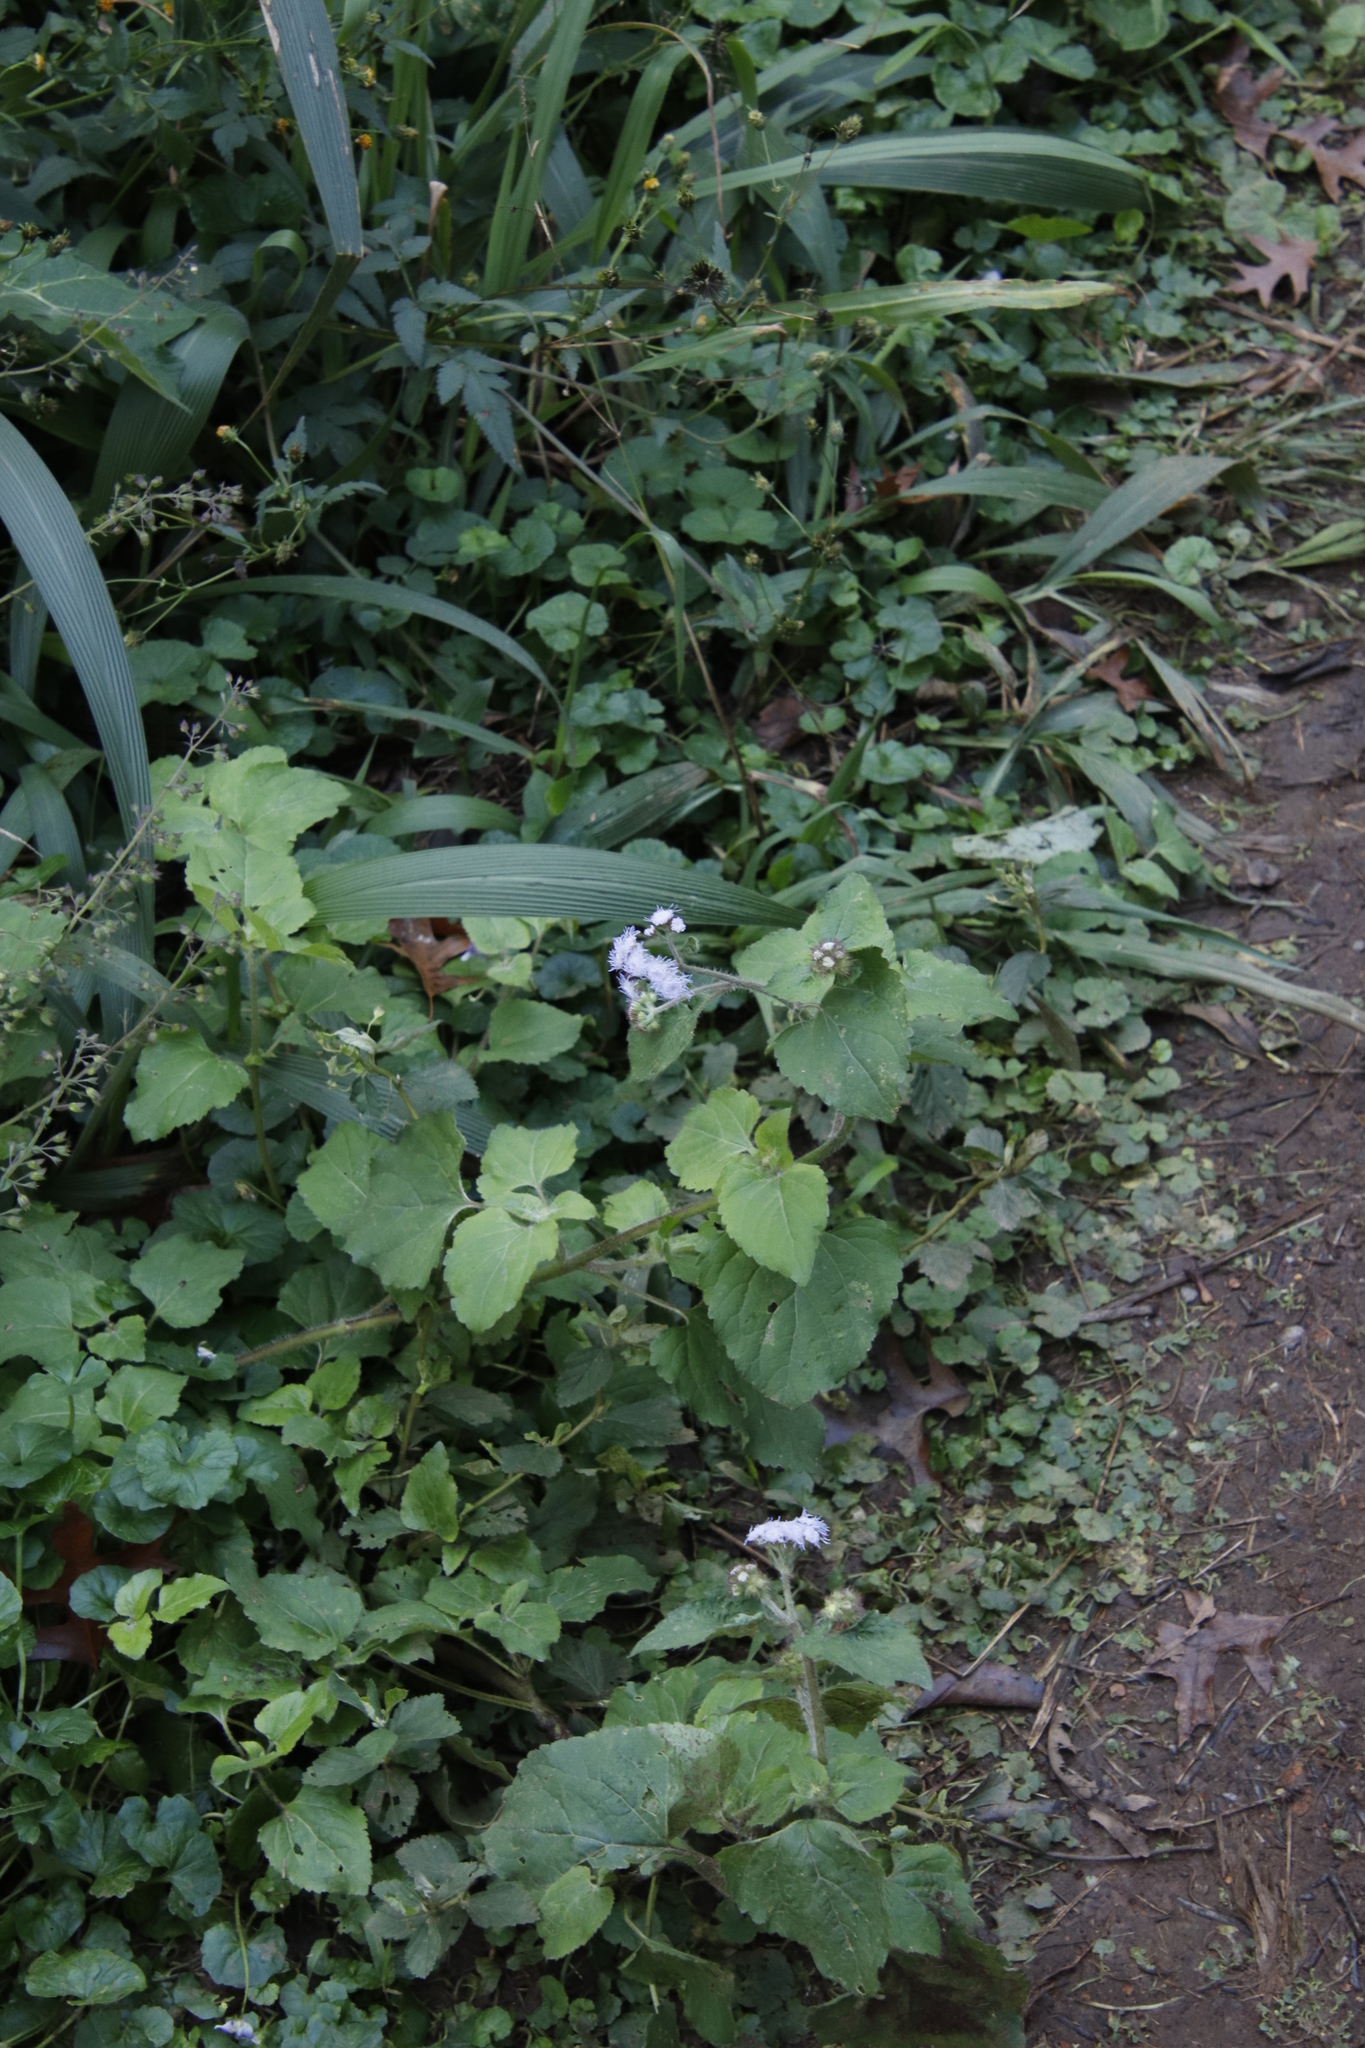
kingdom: Plantae
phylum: Tracheophyta
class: Magnoliopsida
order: Lamiales
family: Lamiaceae
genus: Equilabium
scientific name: Equilabium laxiflorum
